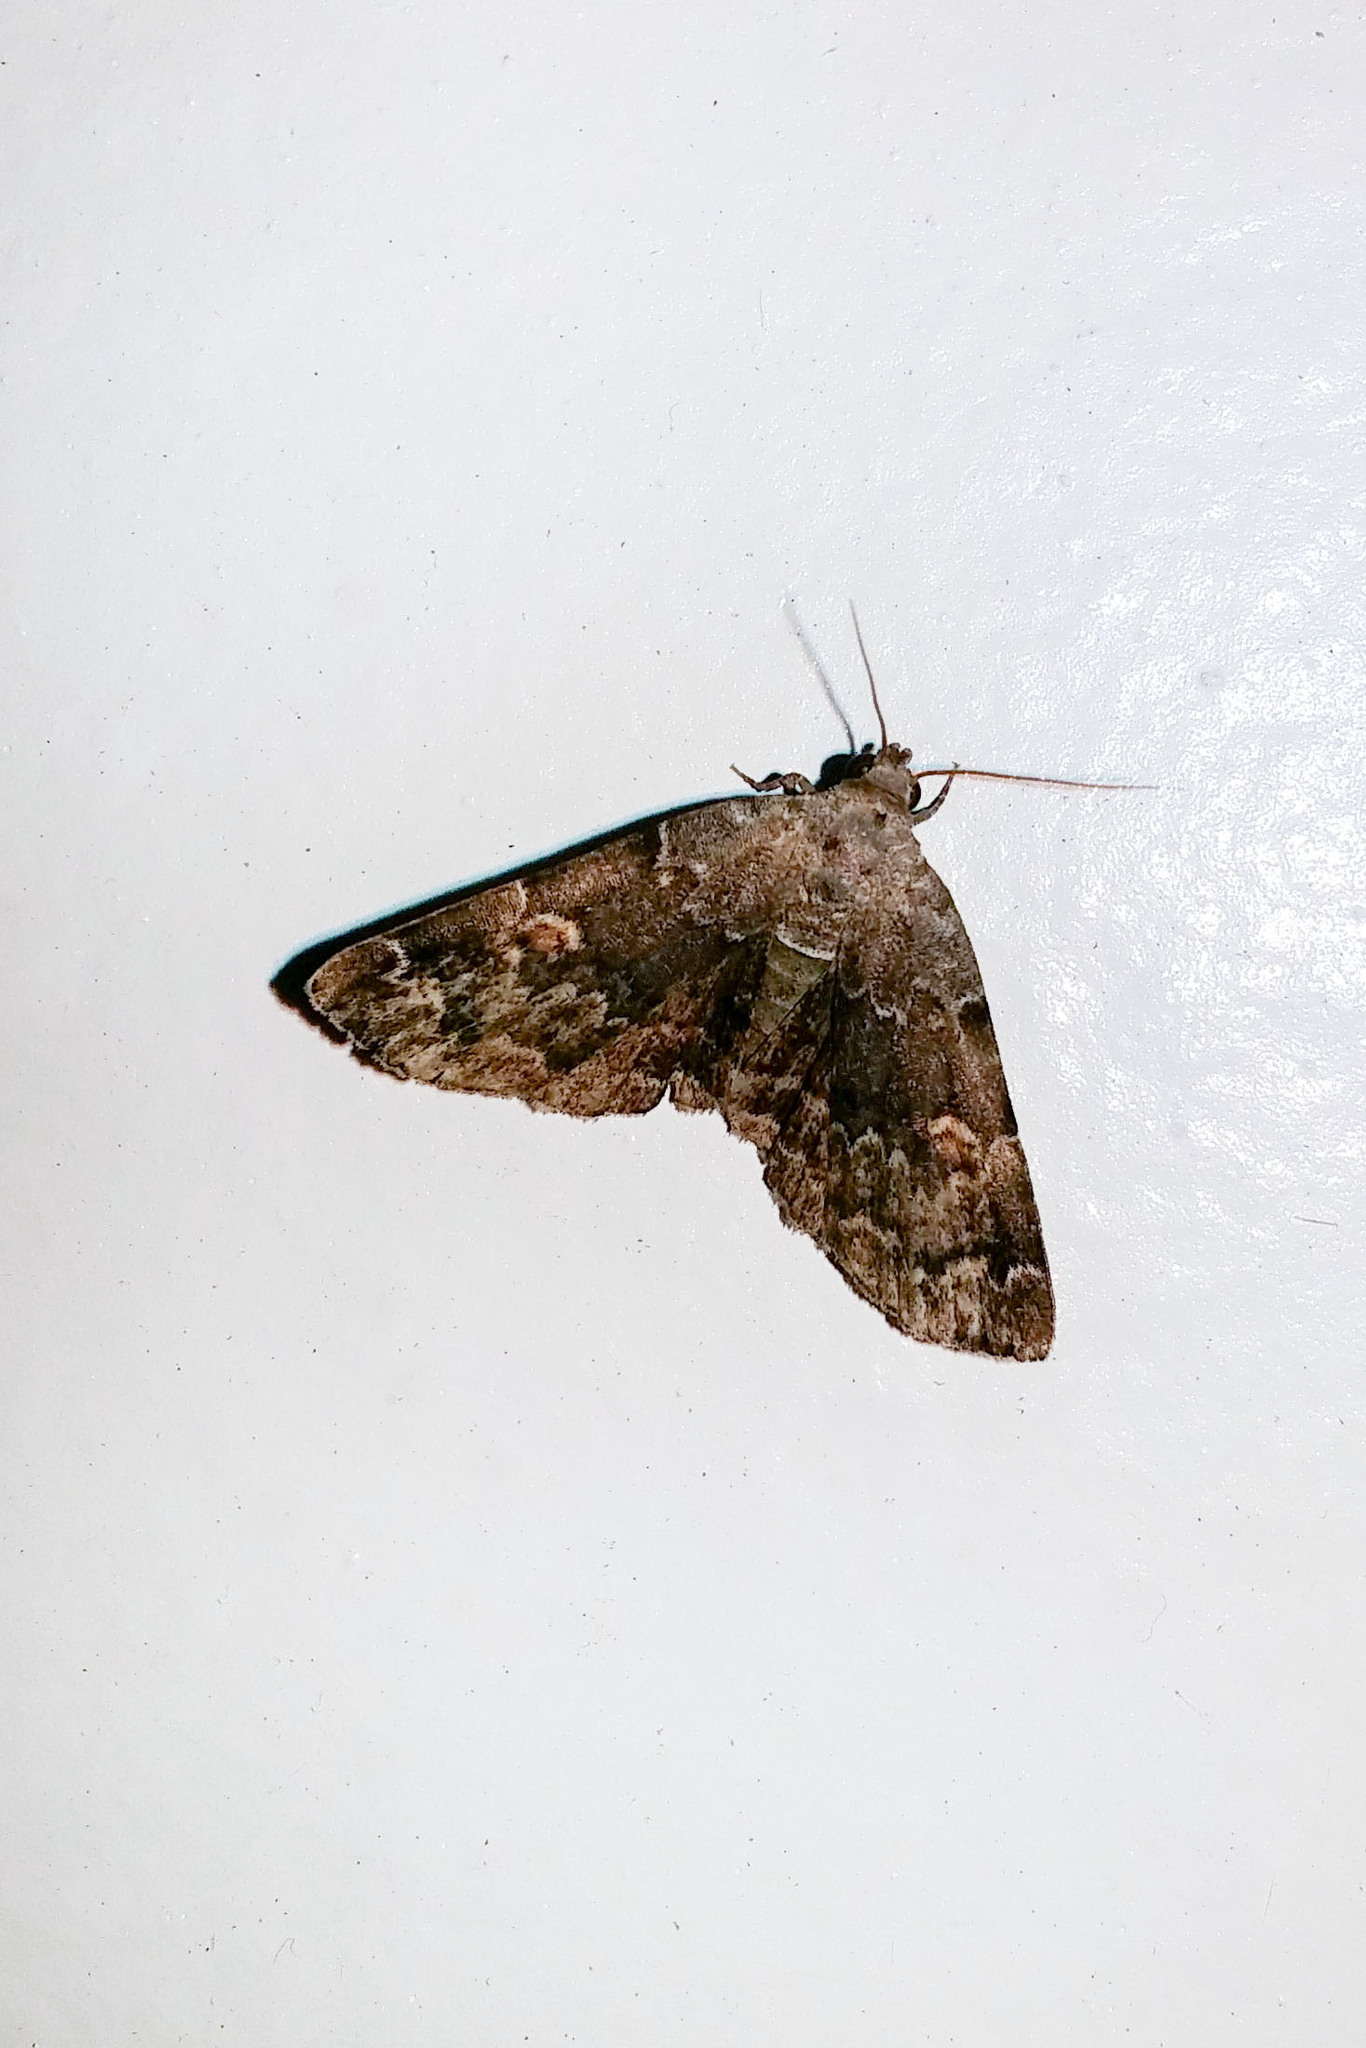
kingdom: Animalia
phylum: Arthropoda
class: Insecta
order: Lepidoptera
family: Erebidae
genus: Idia
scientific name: Idia americalis
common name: American idia moth
